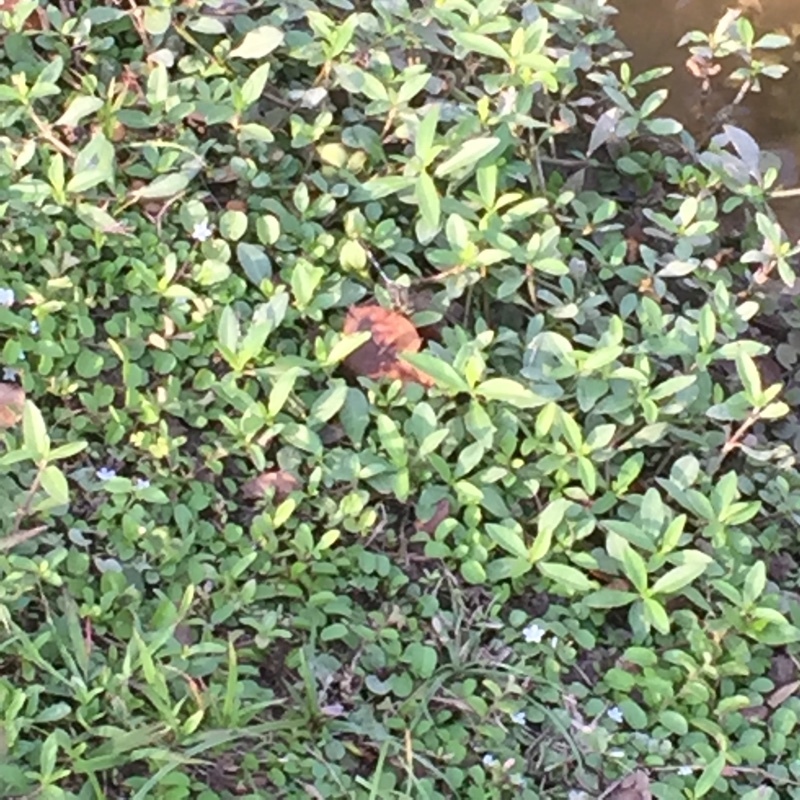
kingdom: Animalia
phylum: Arthropoda
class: Insecta
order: Odonata
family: Libellulidae
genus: Orthetrum
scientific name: Orthetrum sabina
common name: Slender skimmer
